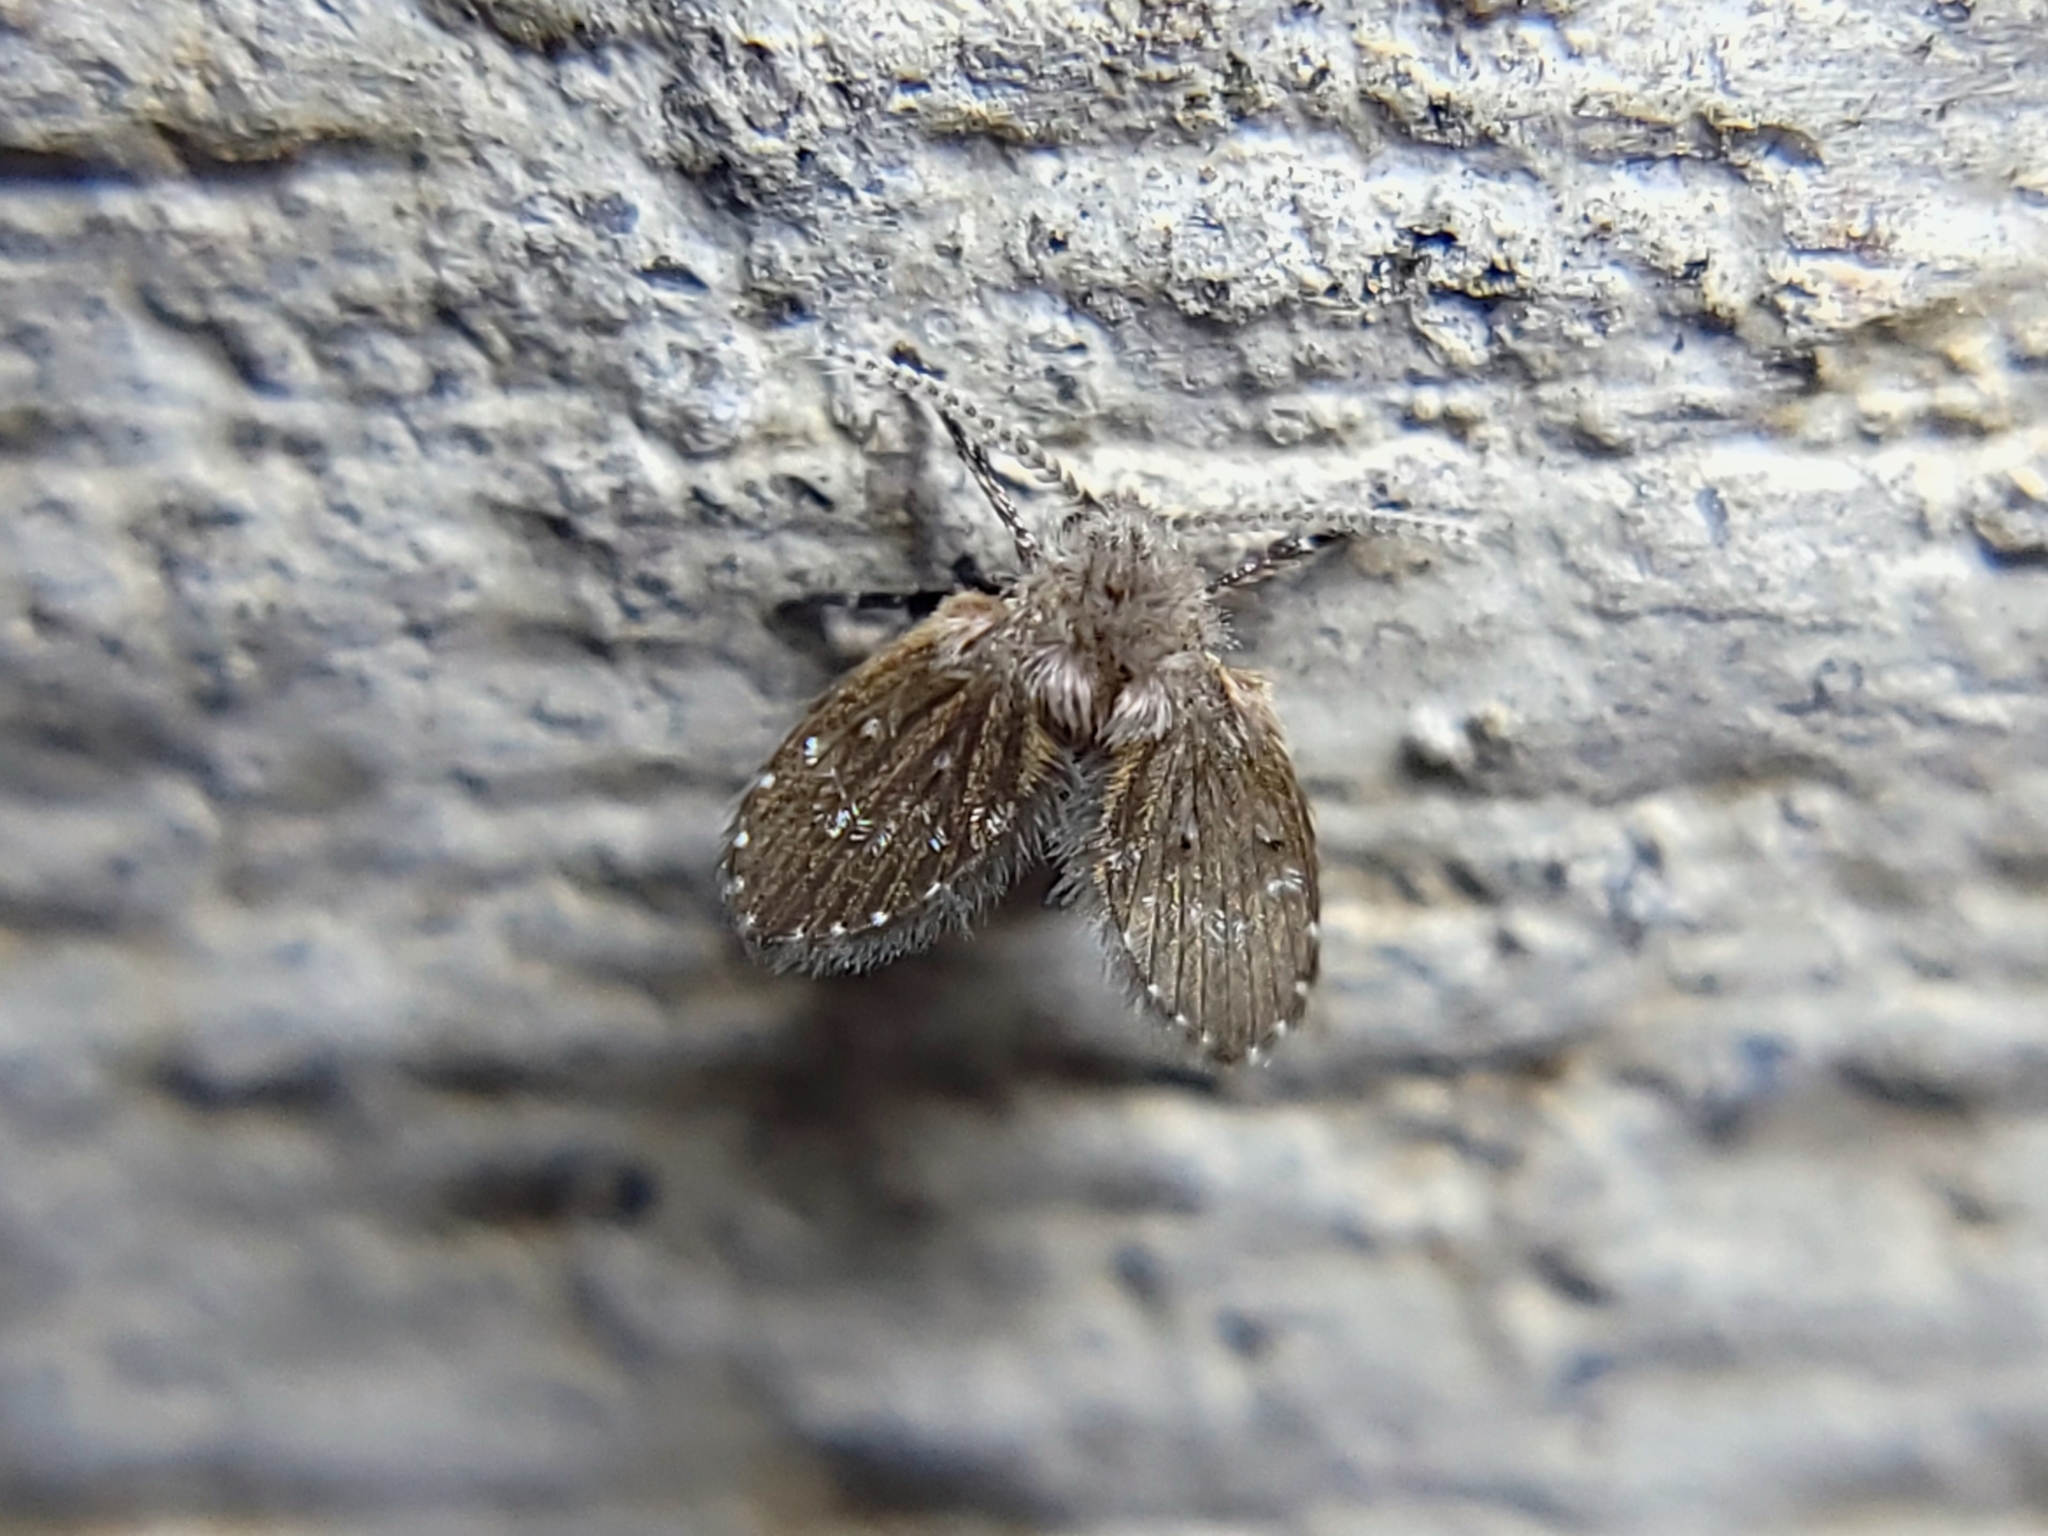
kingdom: Animalia
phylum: Arthropoda
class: Insecta
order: Diptera
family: Psychodidae
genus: Clogmia
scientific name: Clogmia albipunctatus
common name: White-spotted moth fly
